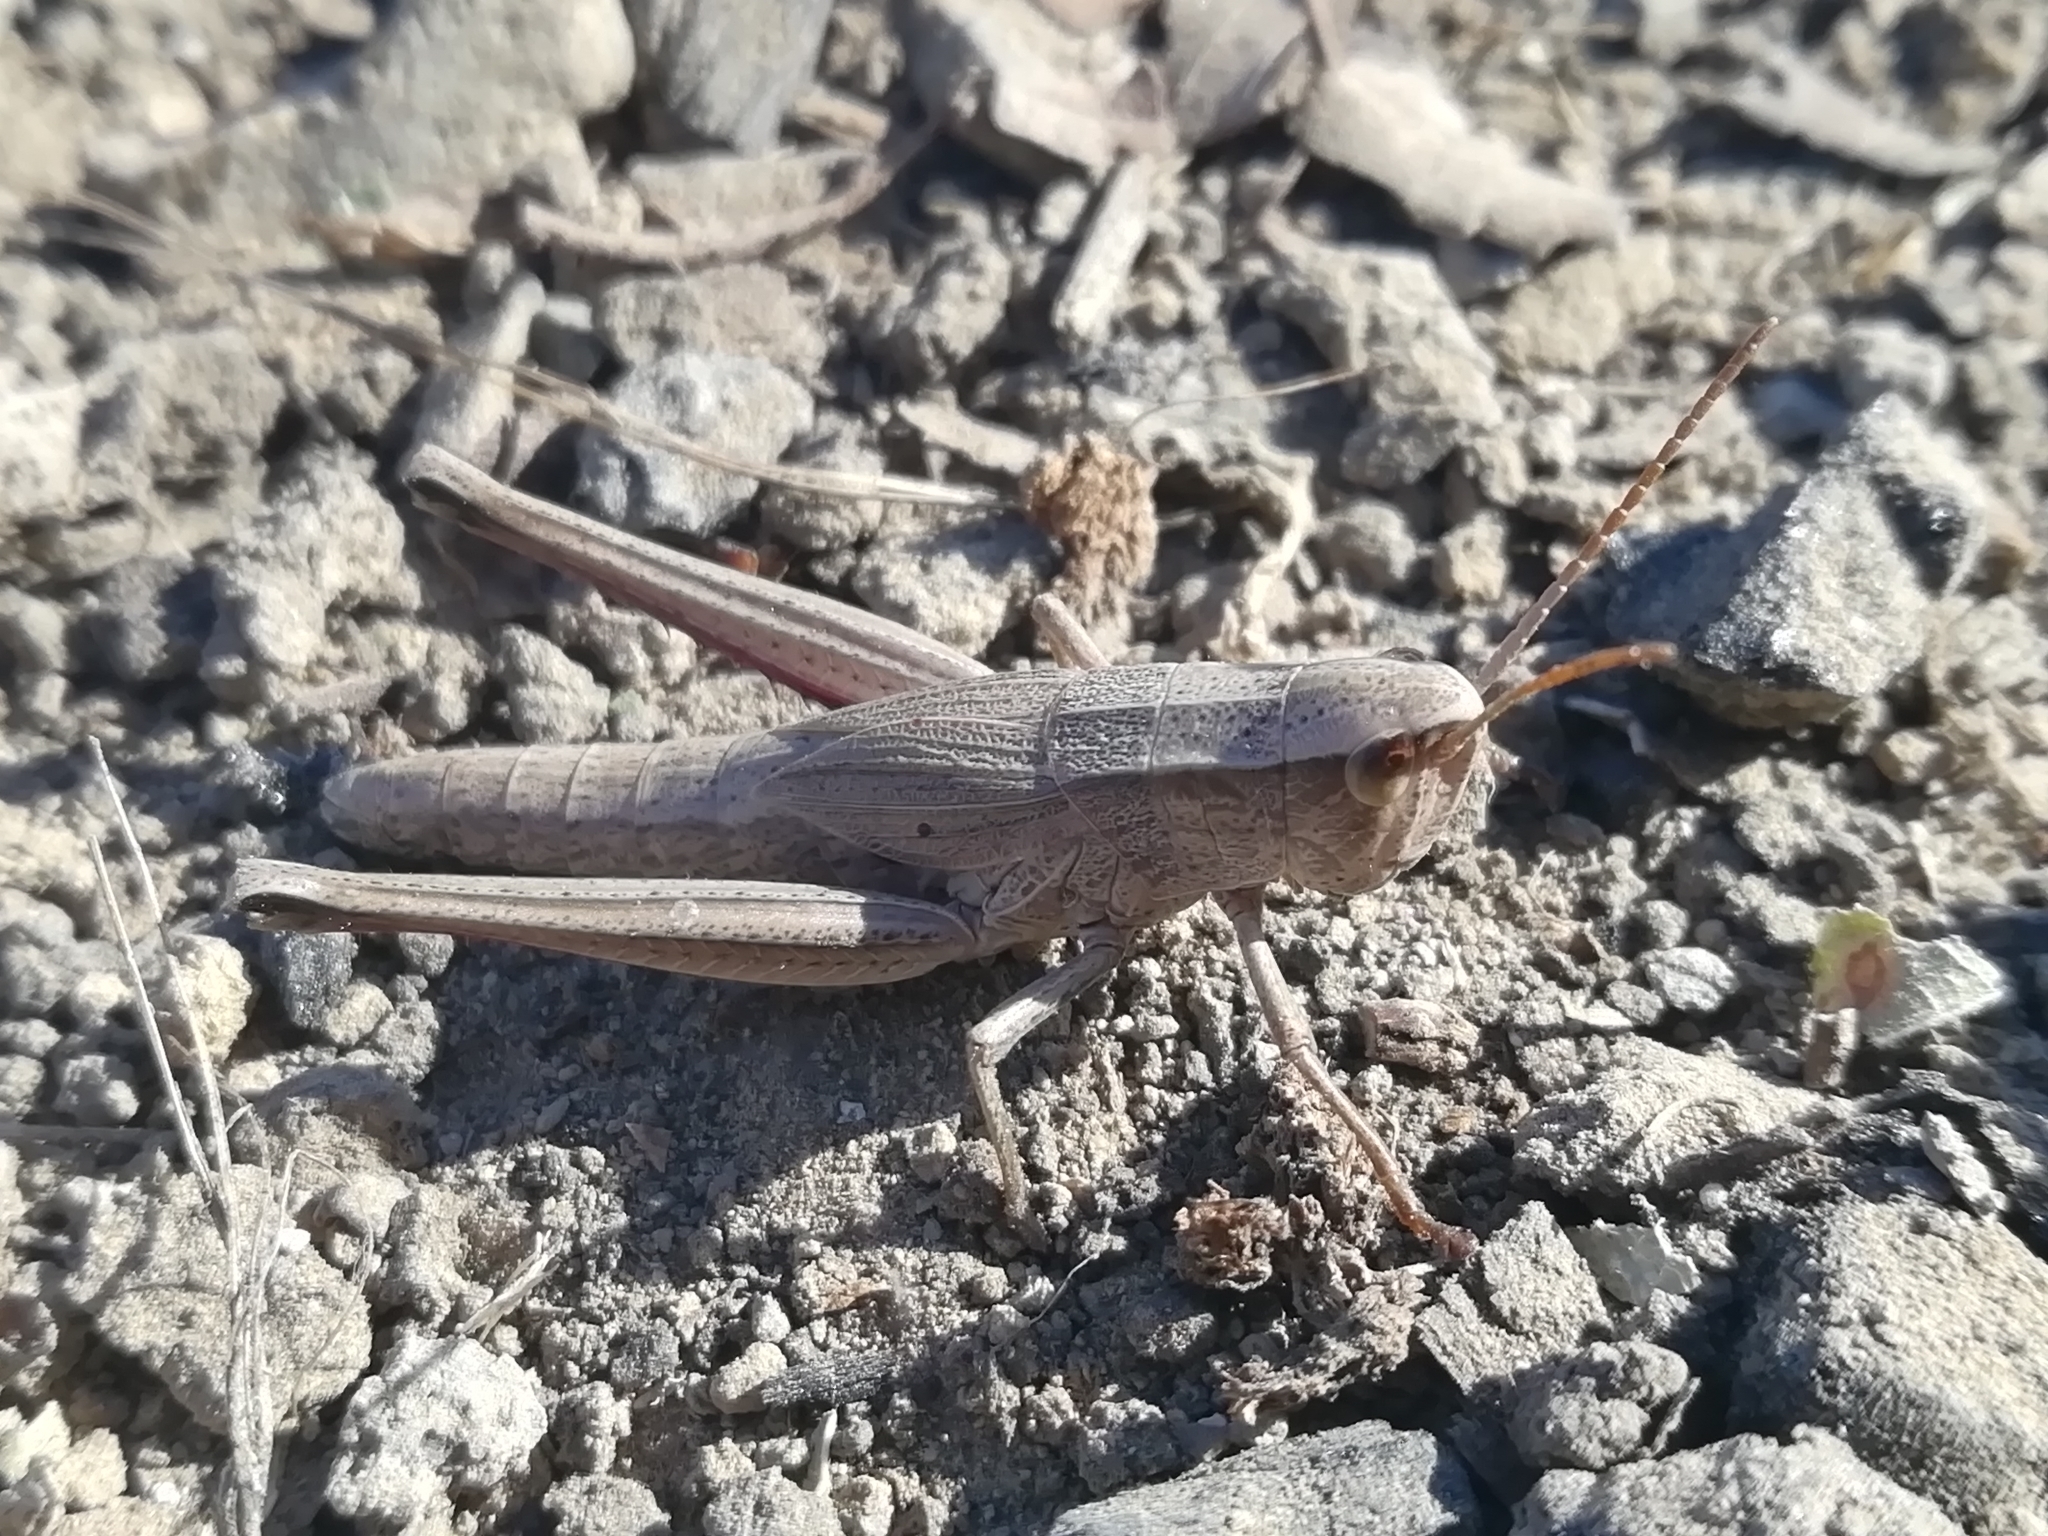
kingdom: Animalia
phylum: Arthropoda
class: Insecta
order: Orthoptera
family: Acrididae
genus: Chrysochraon
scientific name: Chrysochraon dispar
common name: Large gold grasshopper
